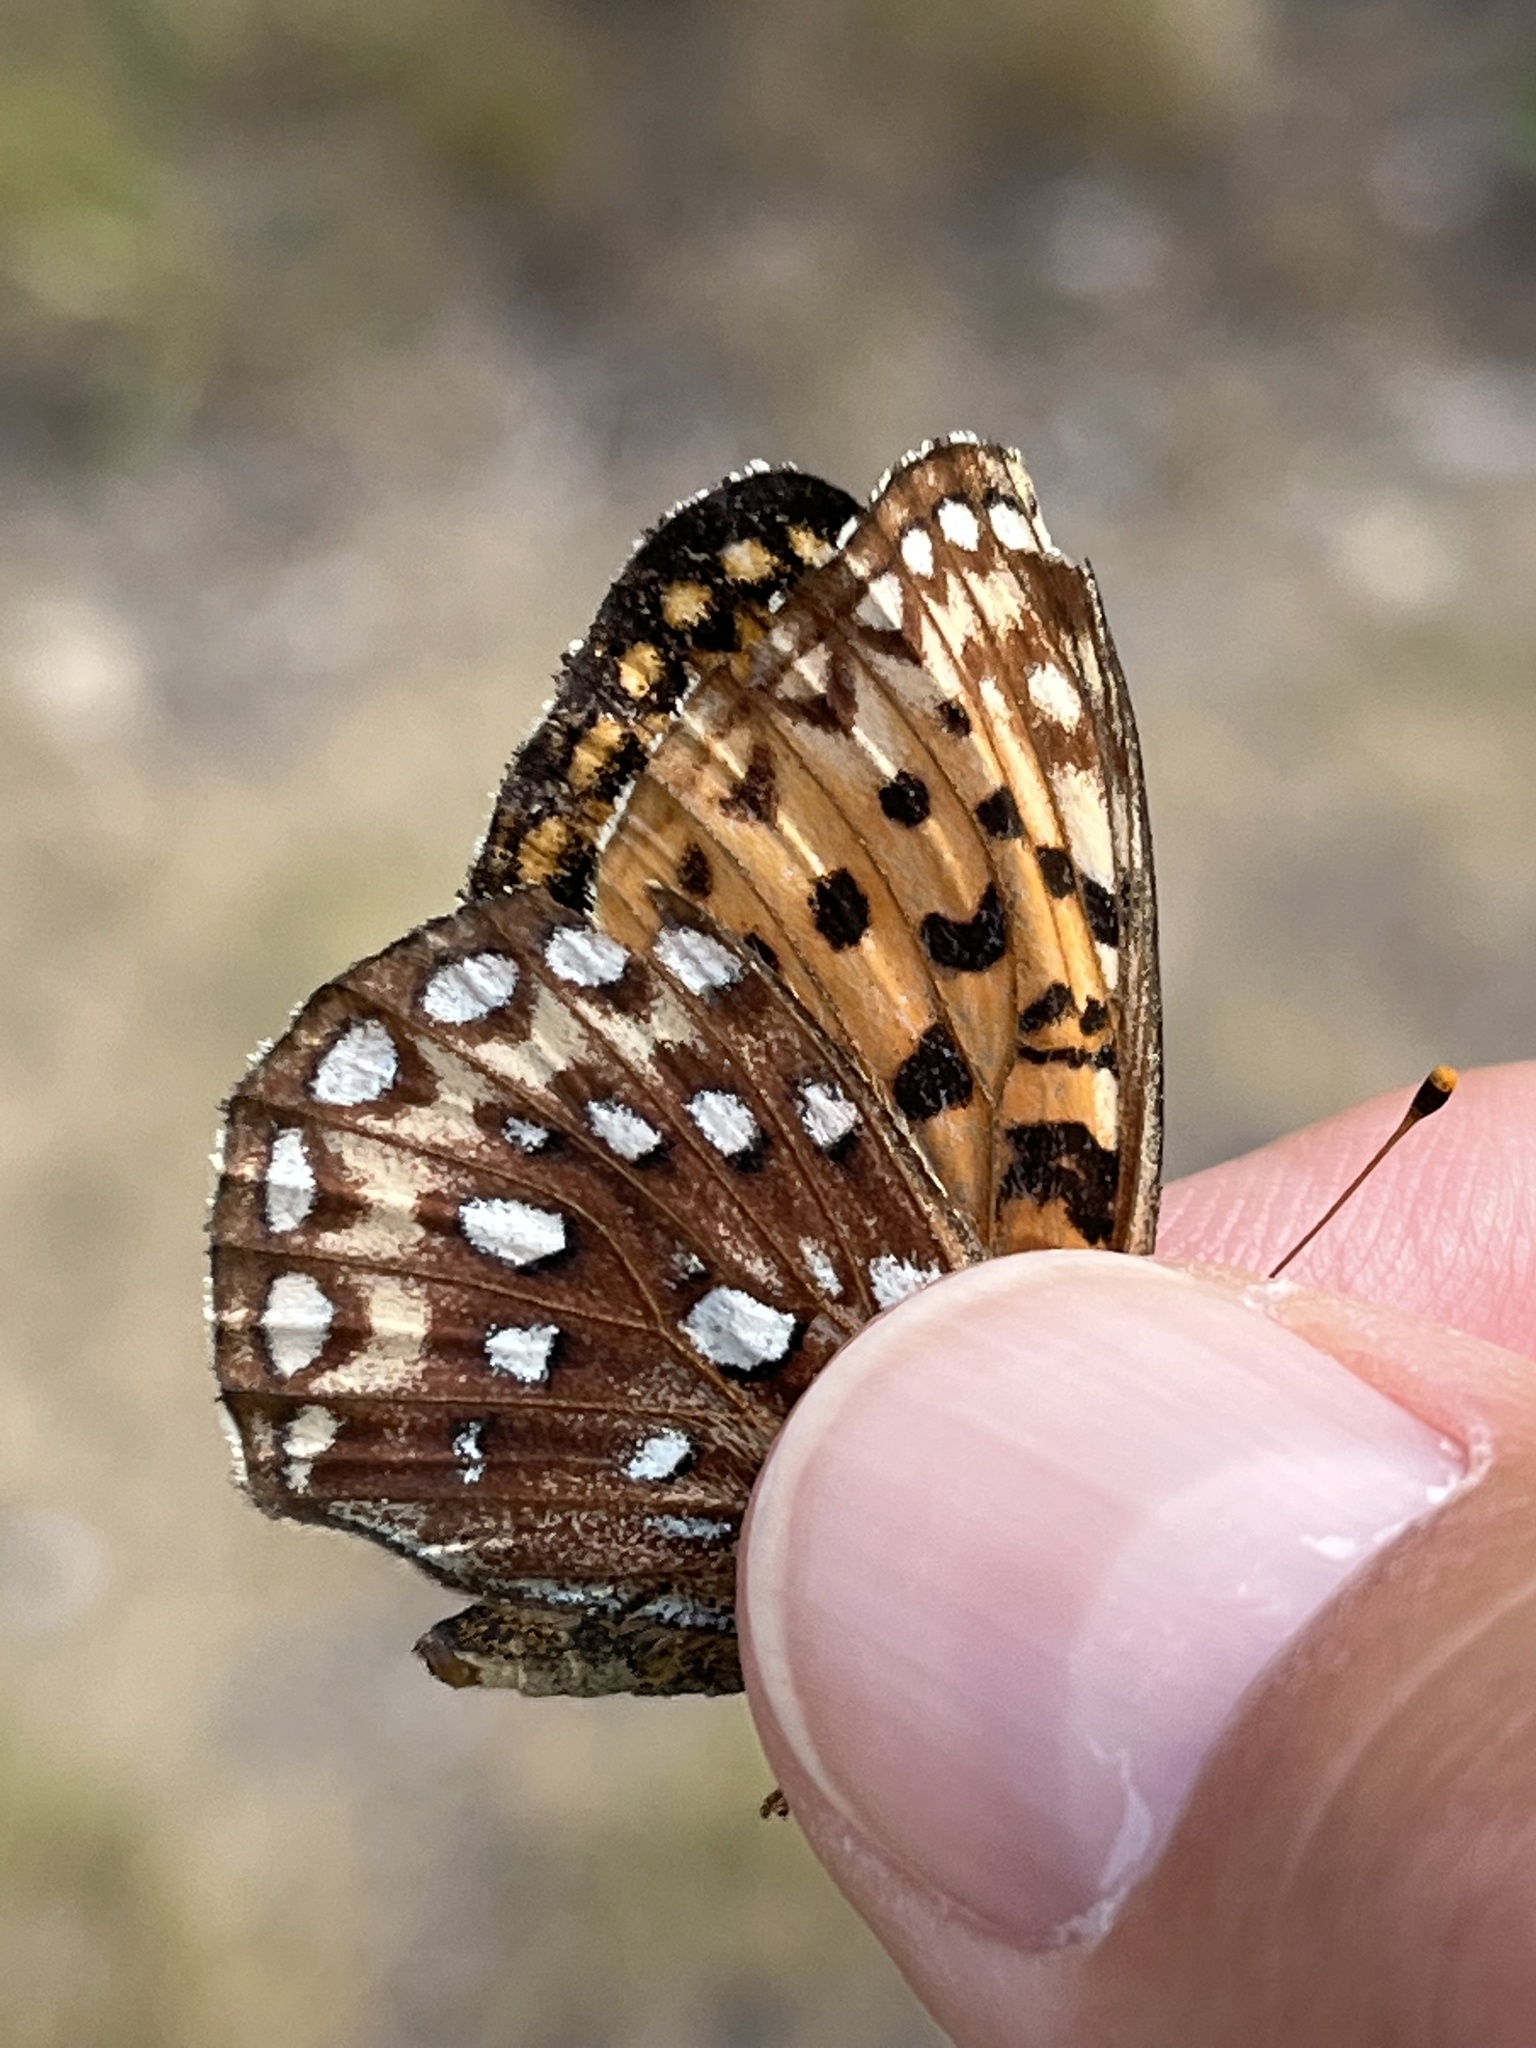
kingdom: Animalia
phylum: Arthropoda
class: Insecta
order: Lepidoptera
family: Nymphalidae
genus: Speyeria
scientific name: Speyeria atlantis
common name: Atlantis fritillary
